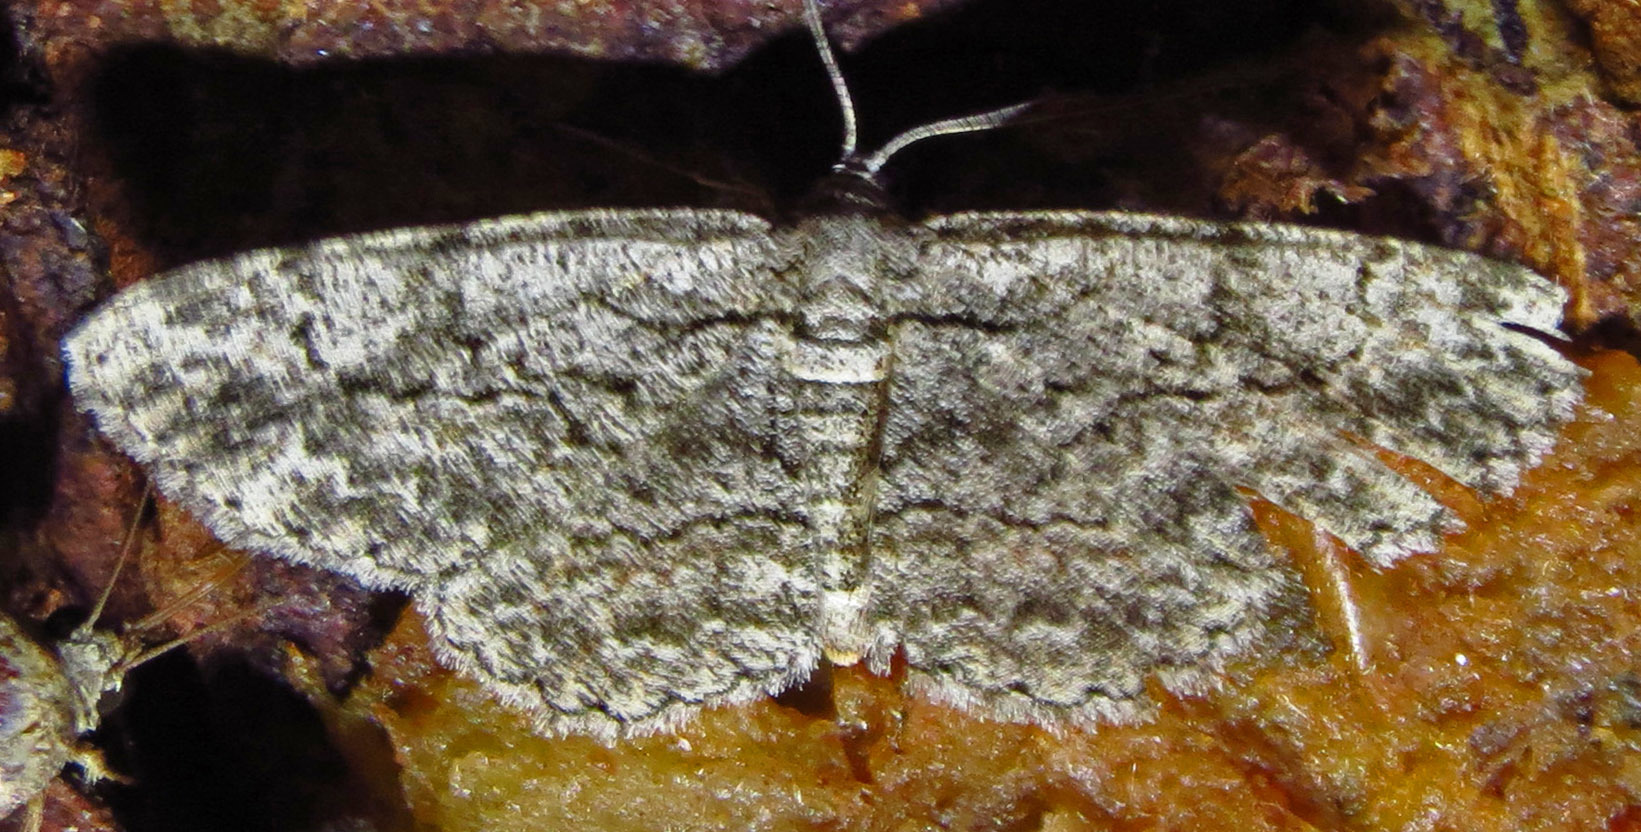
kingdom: Animalia
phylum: Arthropoda
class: Insecta
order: Lepidoptera
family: Geometridae
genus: Anavitrinella
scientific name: Anavitrinella pampinaria
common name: Common gray
